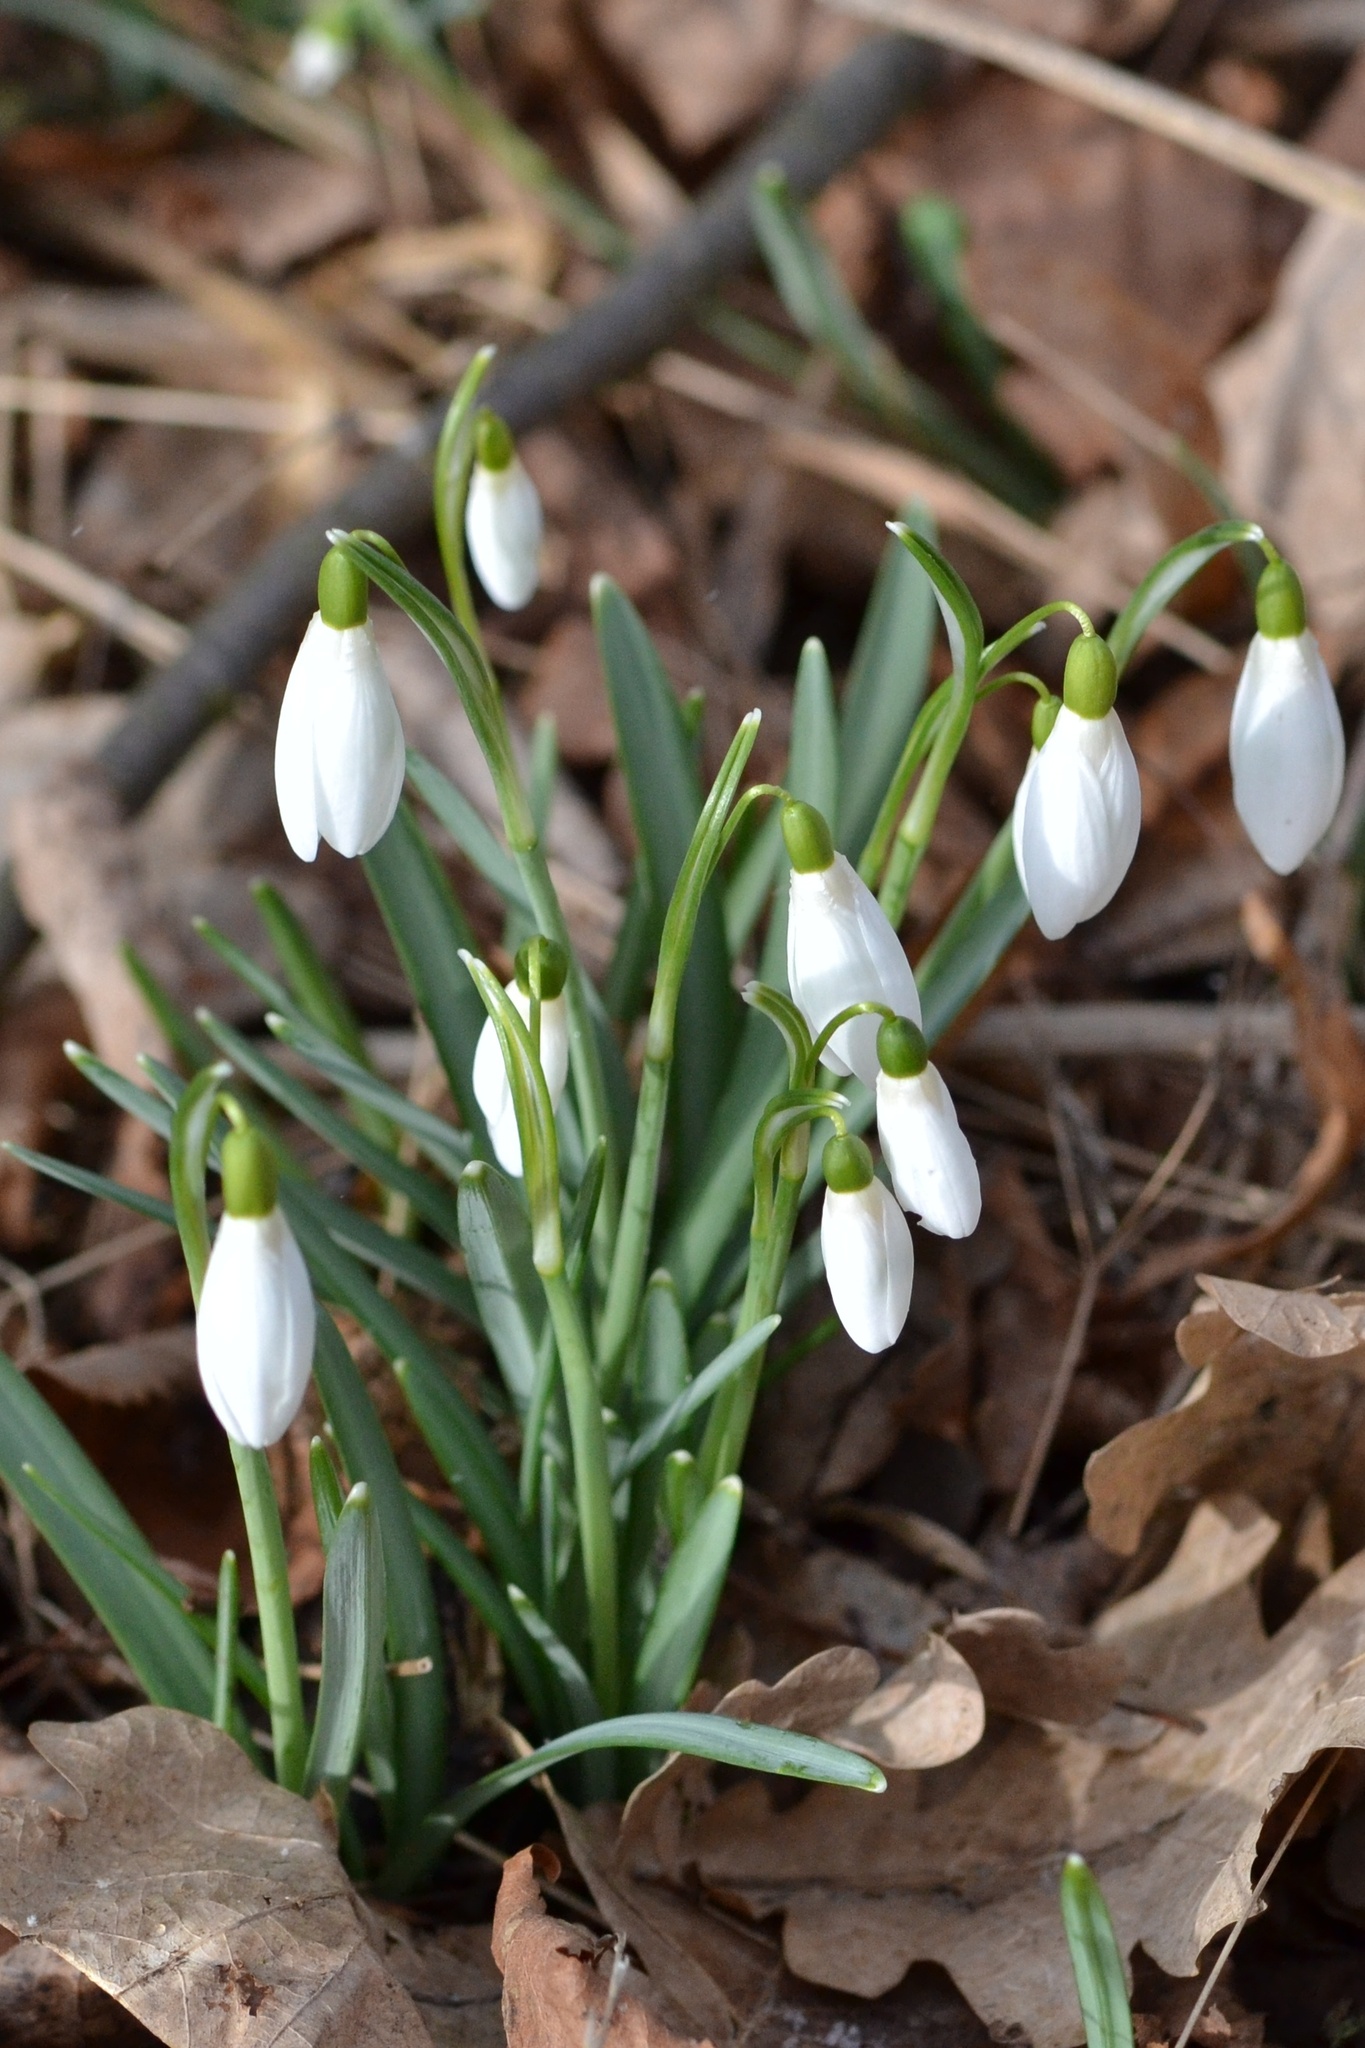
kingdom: Plantae
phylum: Tracheophyta
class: Liliopsida
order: Asparagales
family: Amaryllidaceae
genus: Galanthus
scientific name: Galanthus nivalis
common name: Snowdrop
